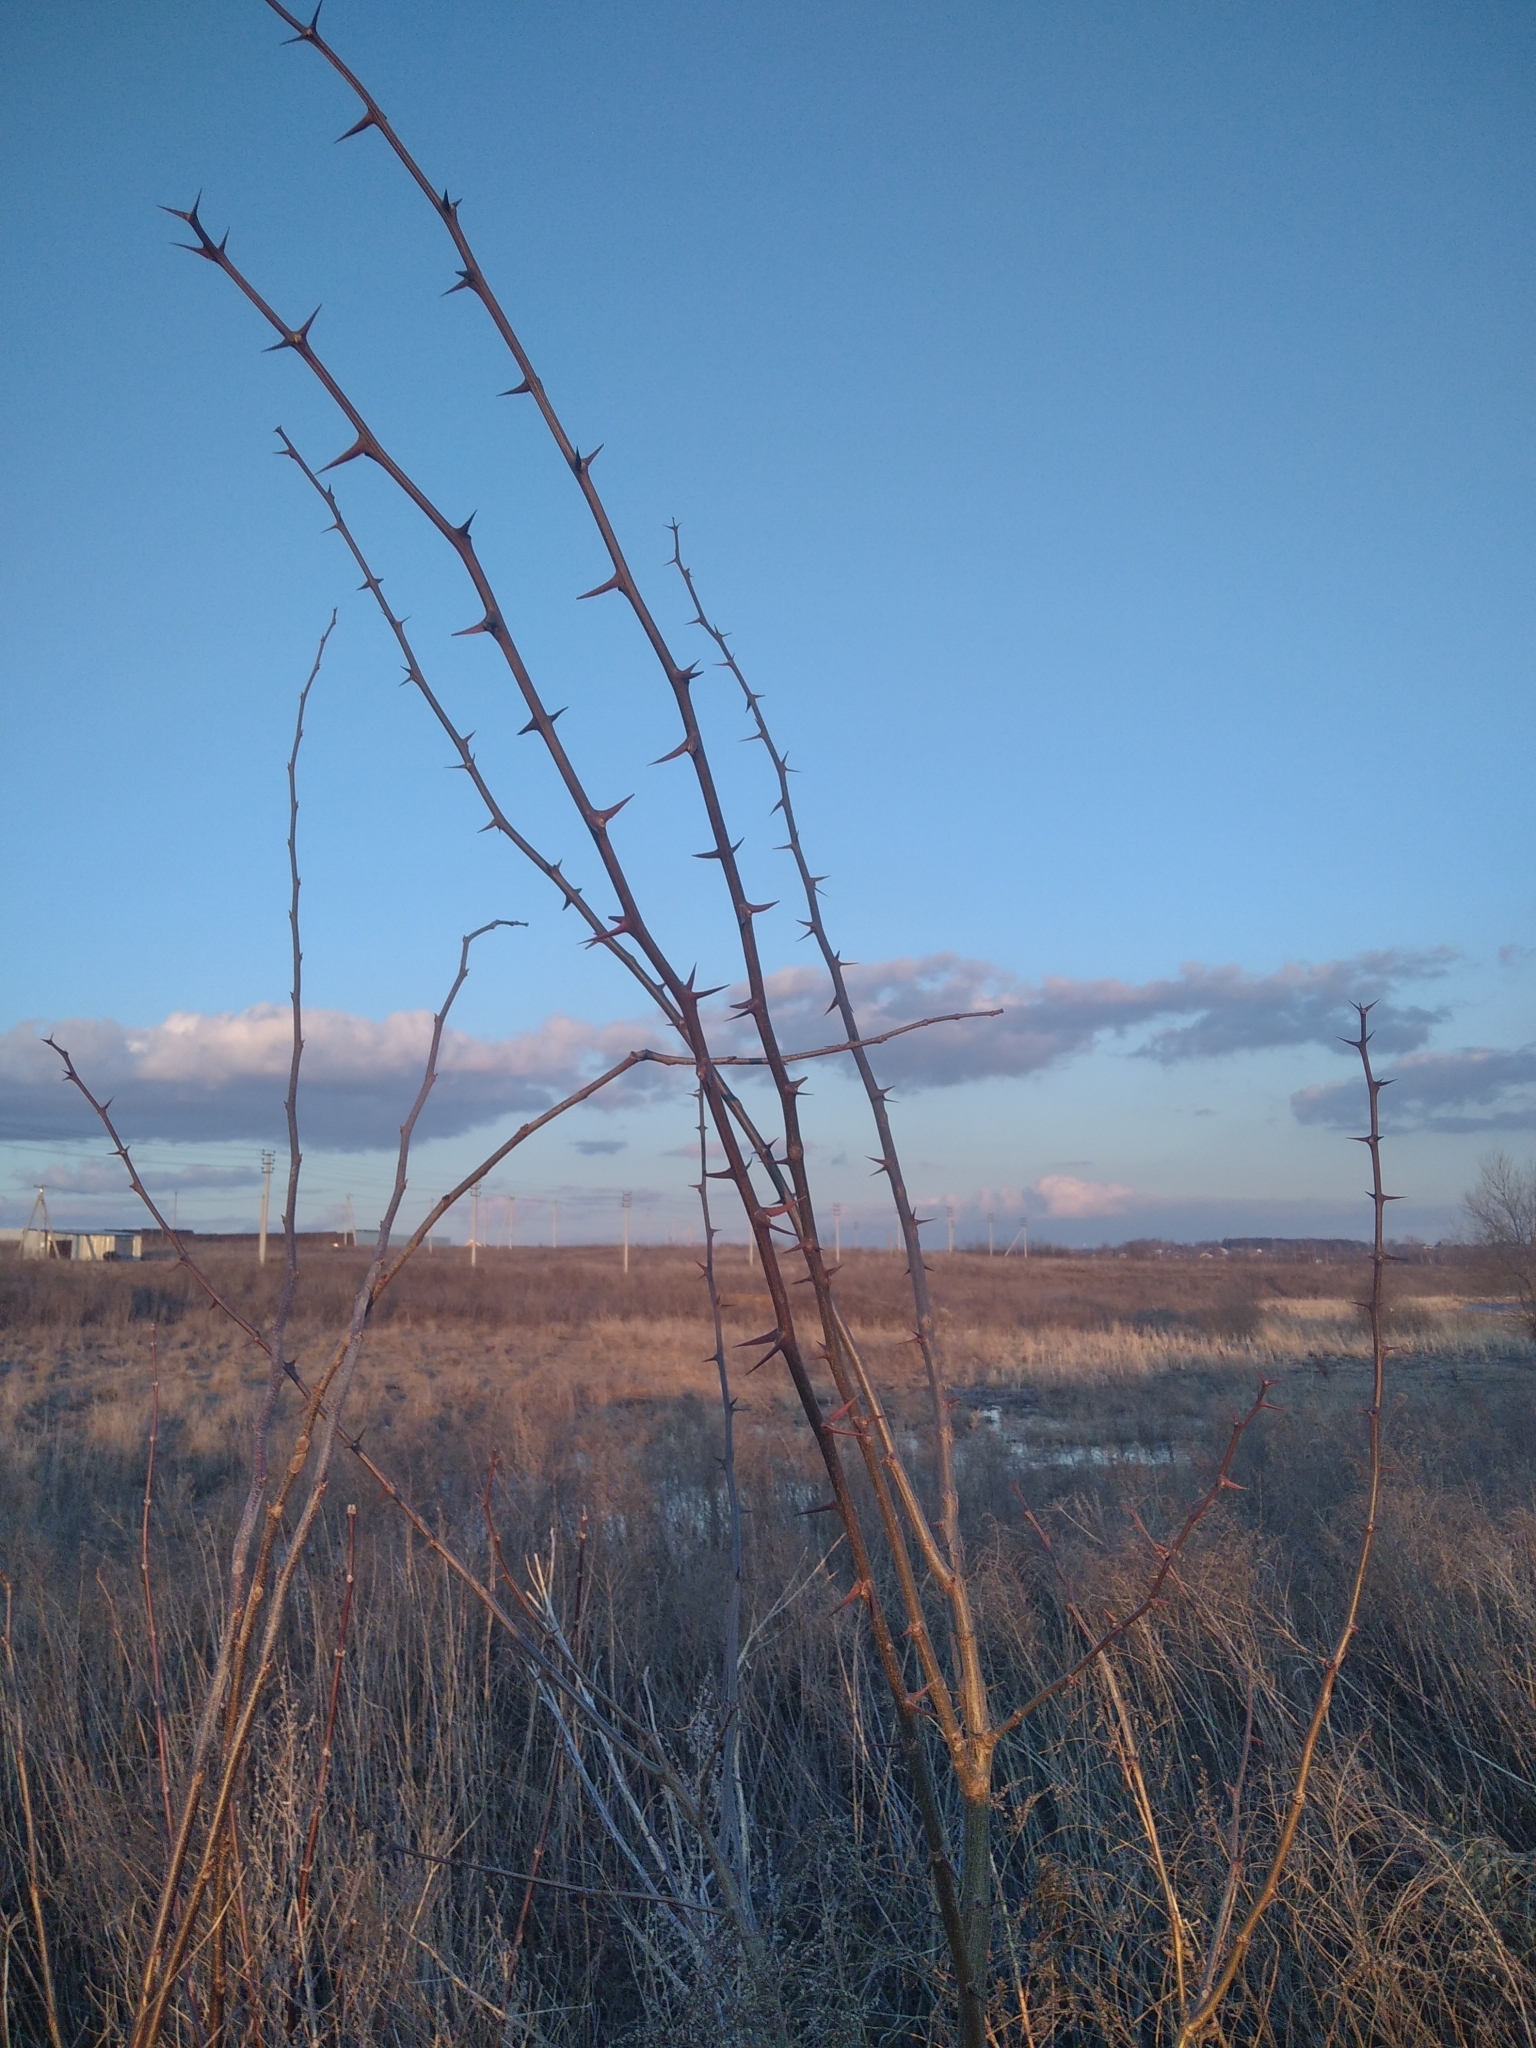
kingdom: Plantae
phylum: Tracheophyta
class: Magnoliopsida
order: Fabales
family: Fabaceae
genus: Robinia
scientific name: Robinia pseudoacacia
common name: Black locust
